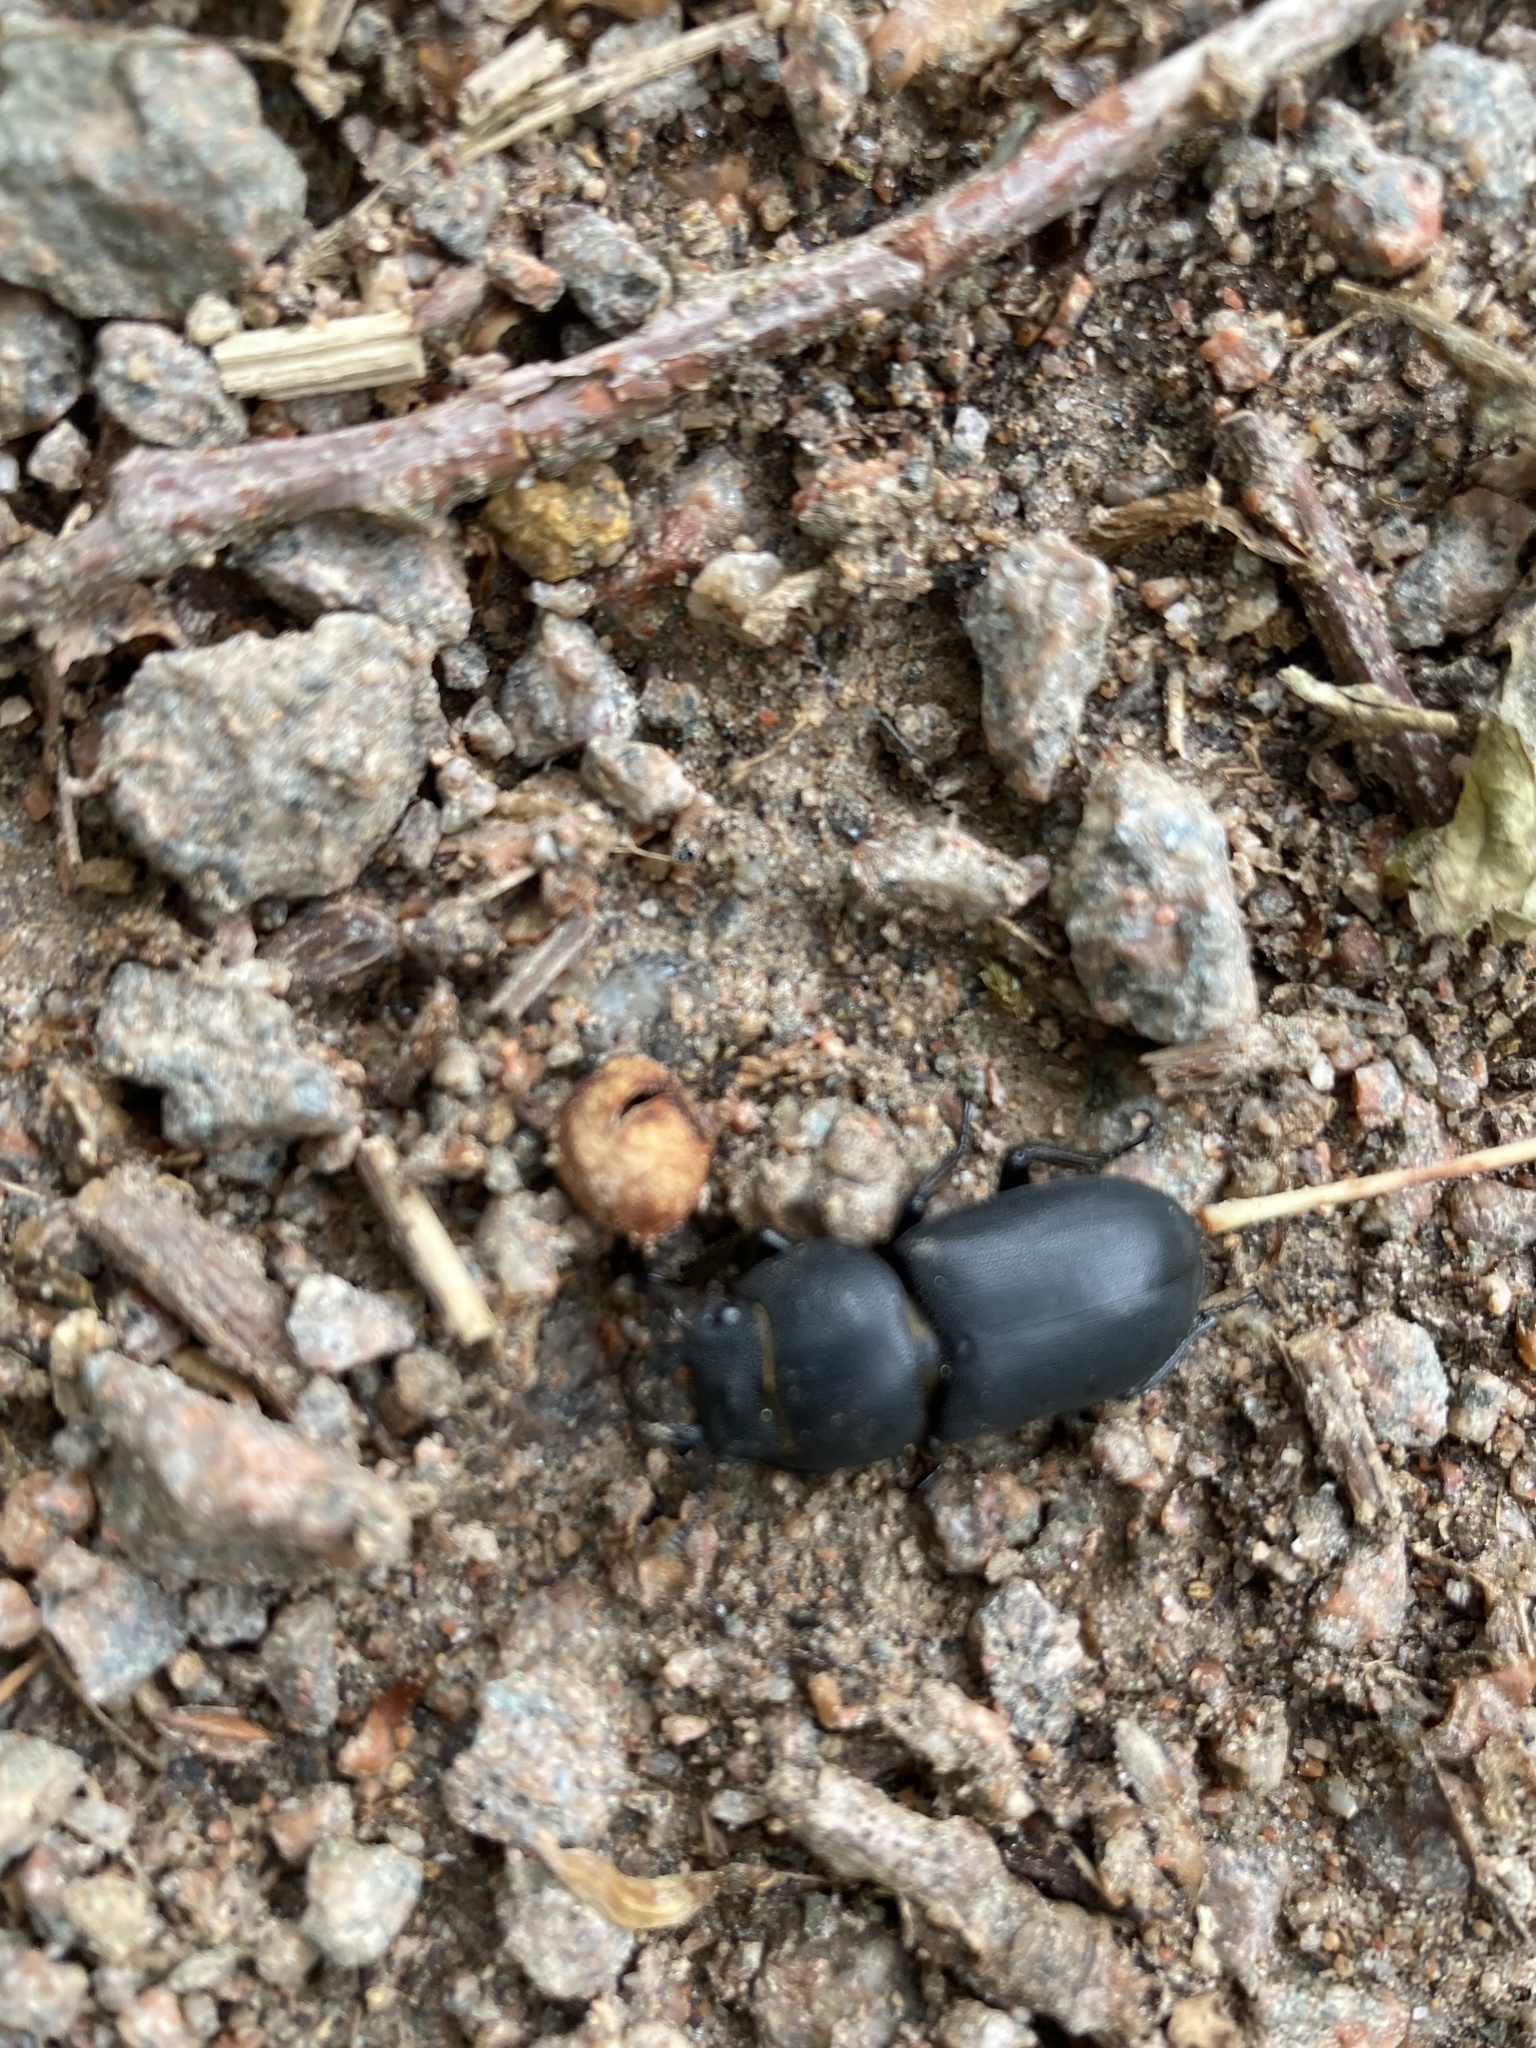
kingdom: Animalia
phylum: Arthropoda
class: Insecta
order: Coleoptera
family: Lucanidae
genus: Dorcus
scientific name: Dorcus parallelipipedus
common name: Lesser stag beetle
